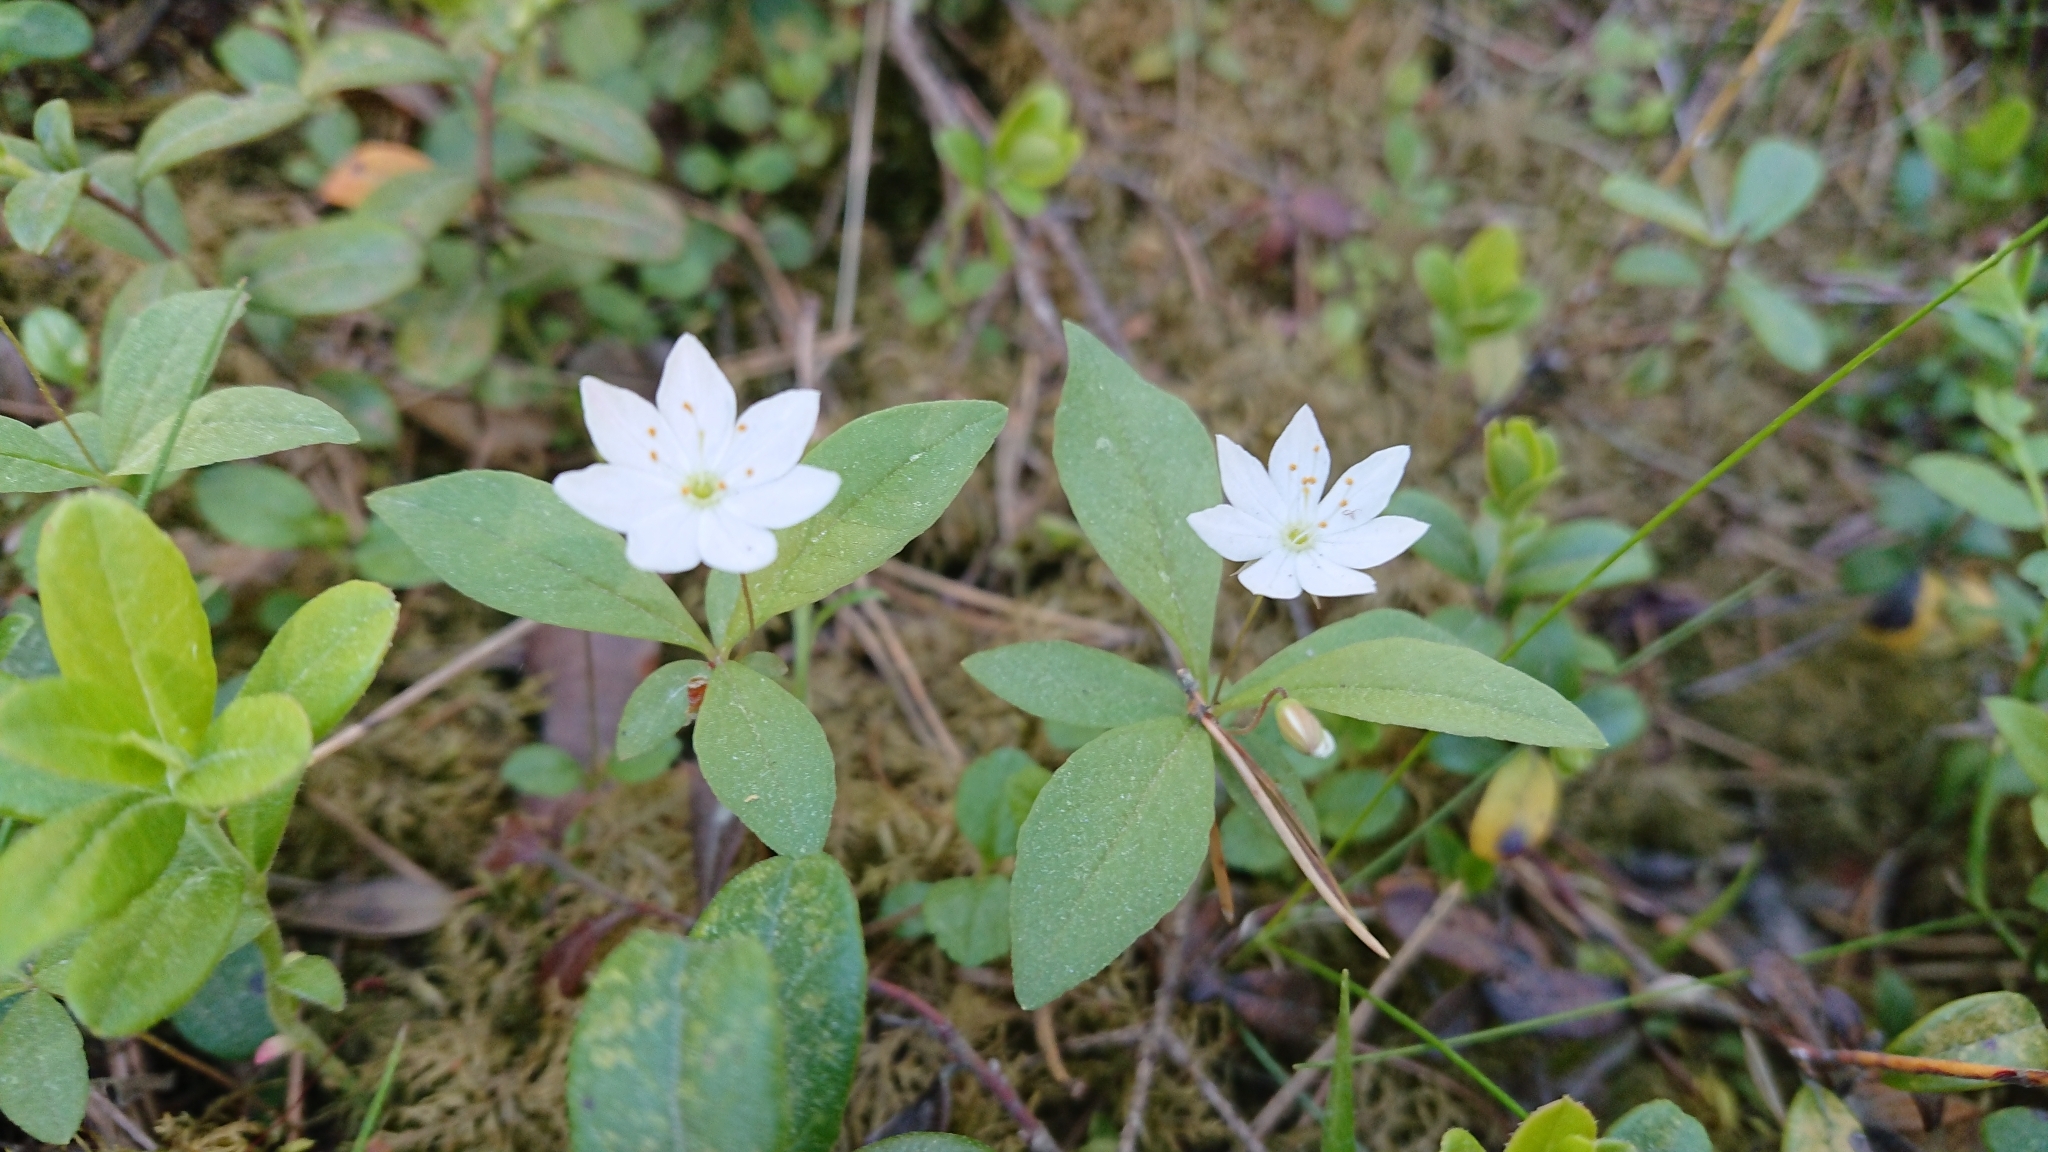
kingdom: Plantae
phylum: Tracheophyta
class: Magnoliopsida
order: Ericales
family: Primulaceae
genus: Lysimachia
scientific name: Lysimachia europaea
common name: Arctic starflower
